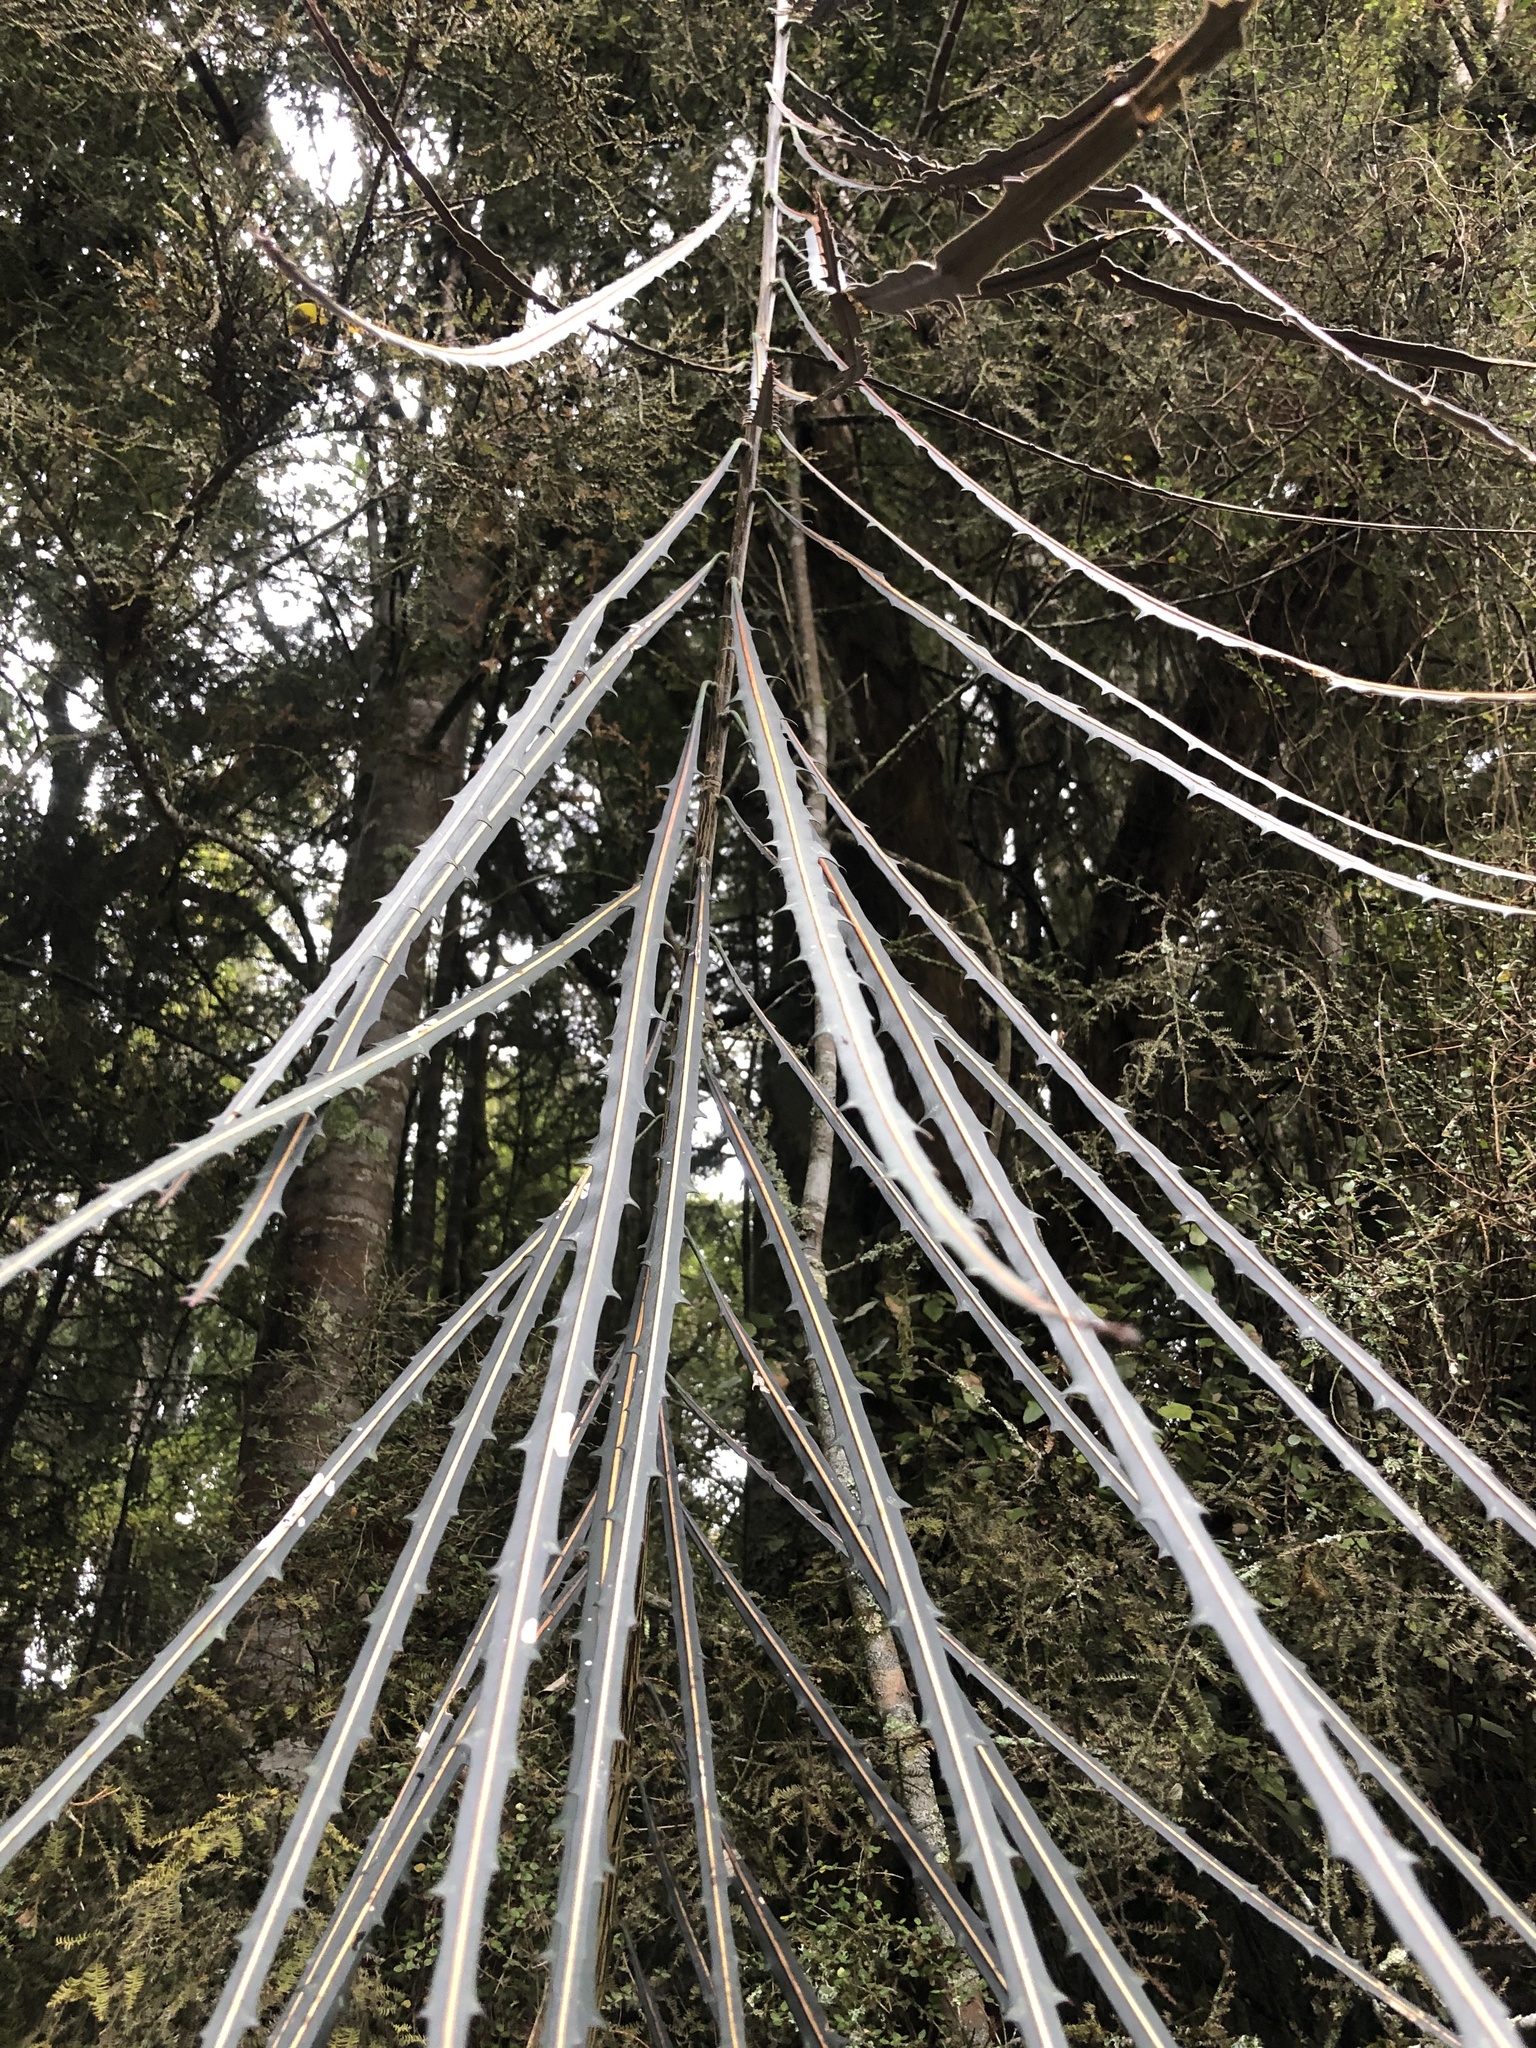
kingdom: Plantae
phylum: Tracheophyta
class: Magnoliopsida
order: Apiales
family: Araliaceae
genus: Pseudopanax
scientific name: Pseudopanax crassifolius
